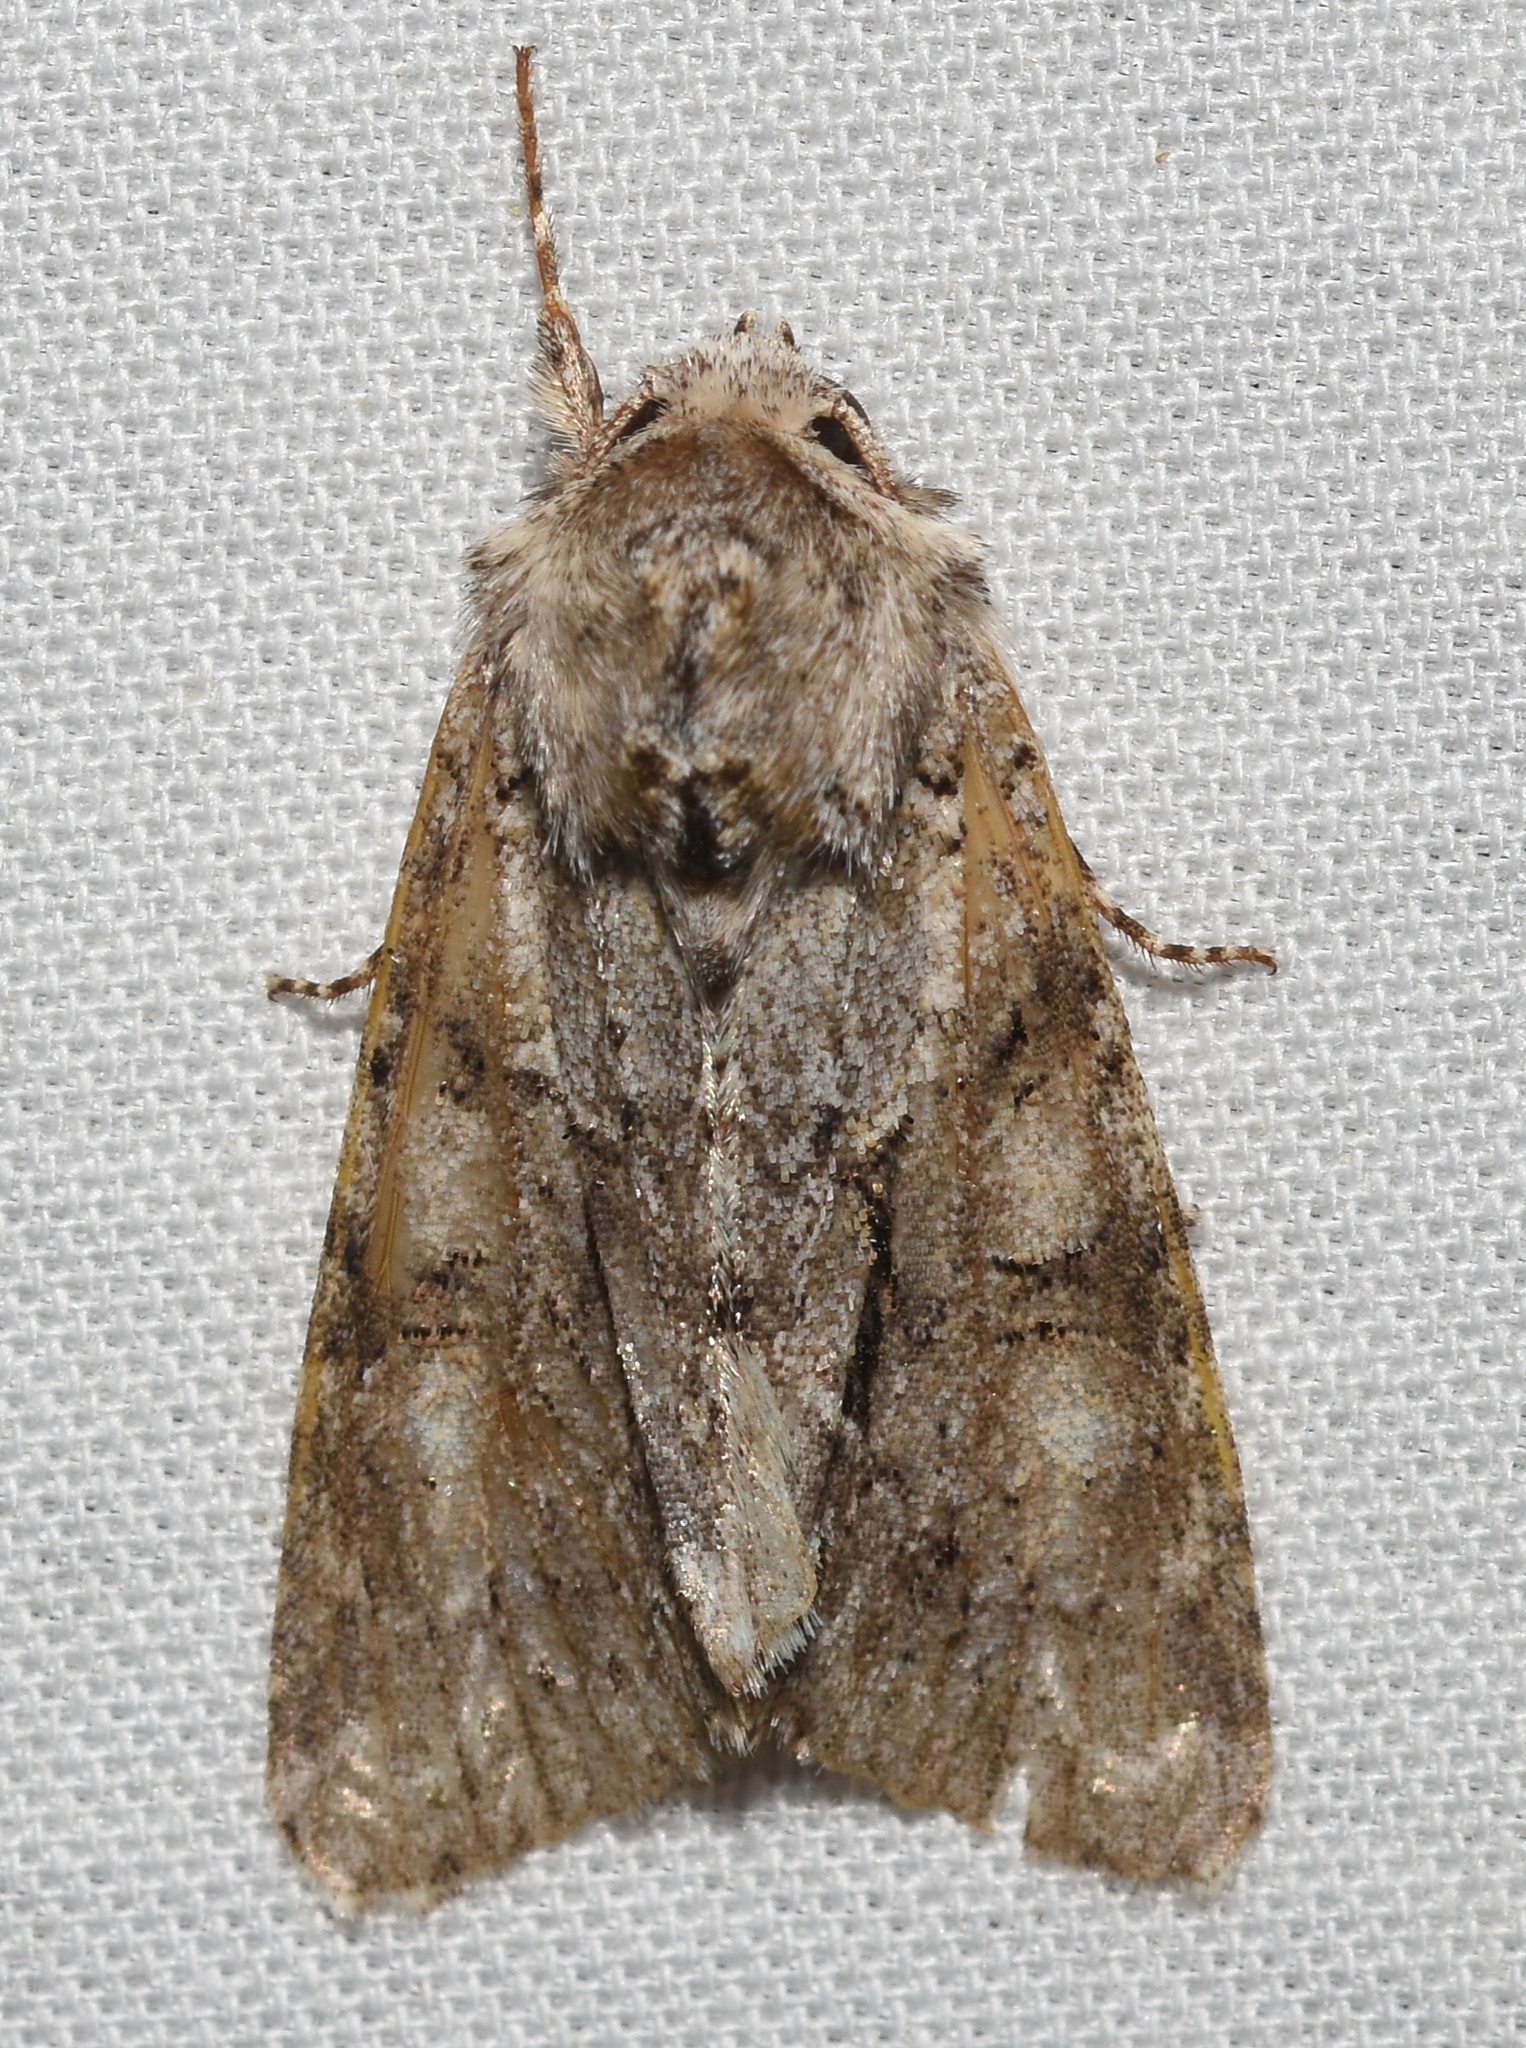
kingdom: Animalia
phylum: Arthropoda
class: Insecta
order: Lepidoptera
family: Noctuidae
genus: Achatia
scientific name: Achatia distincta
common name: Distinct quaker
